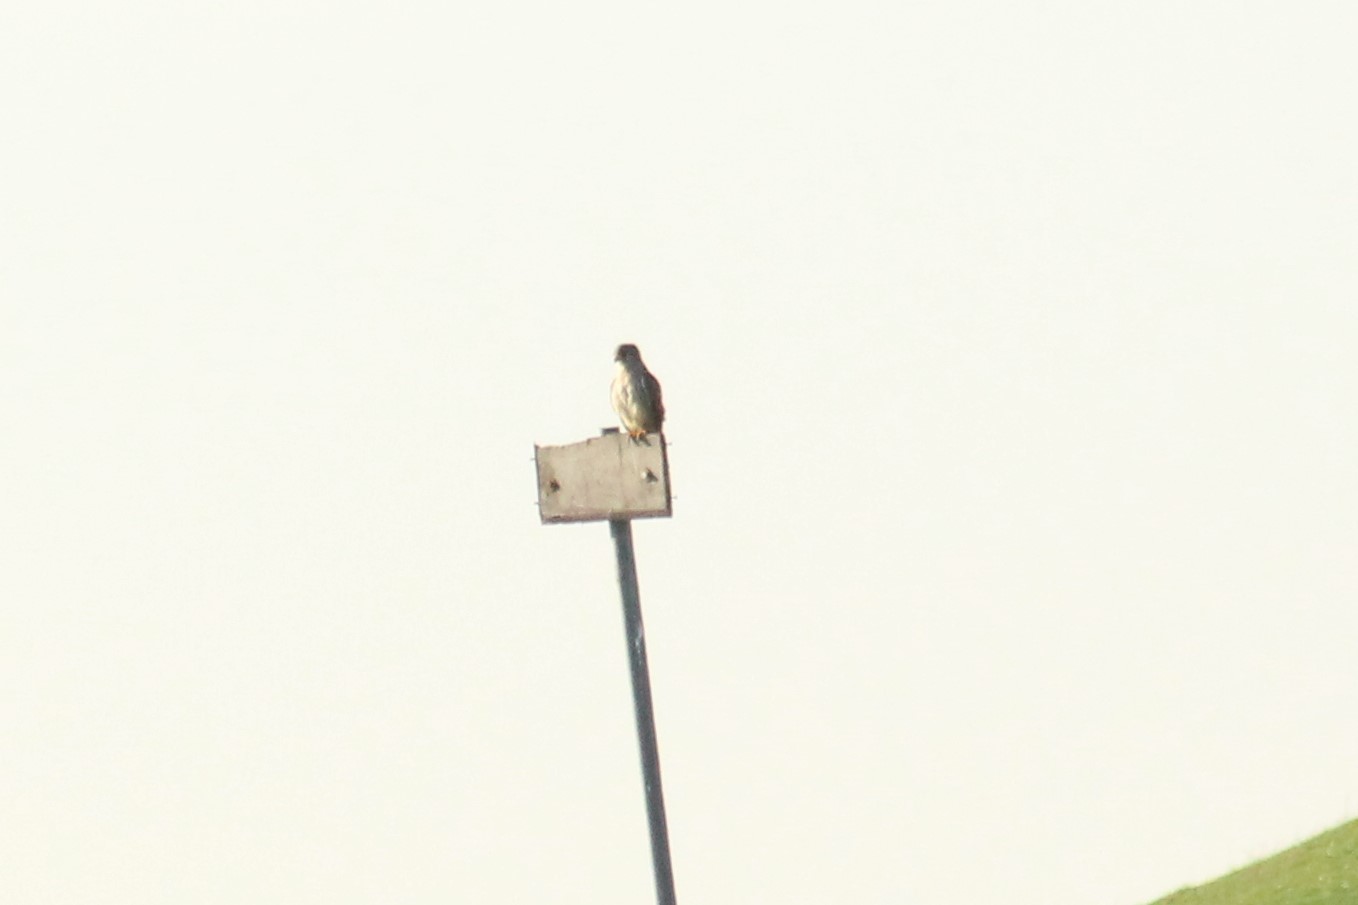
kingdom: Animalia
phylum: Chordata
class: Aves
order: Falconiformes
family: Falconidae
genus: Falco
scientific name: Falco tinnunculus
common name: Common kestrel
